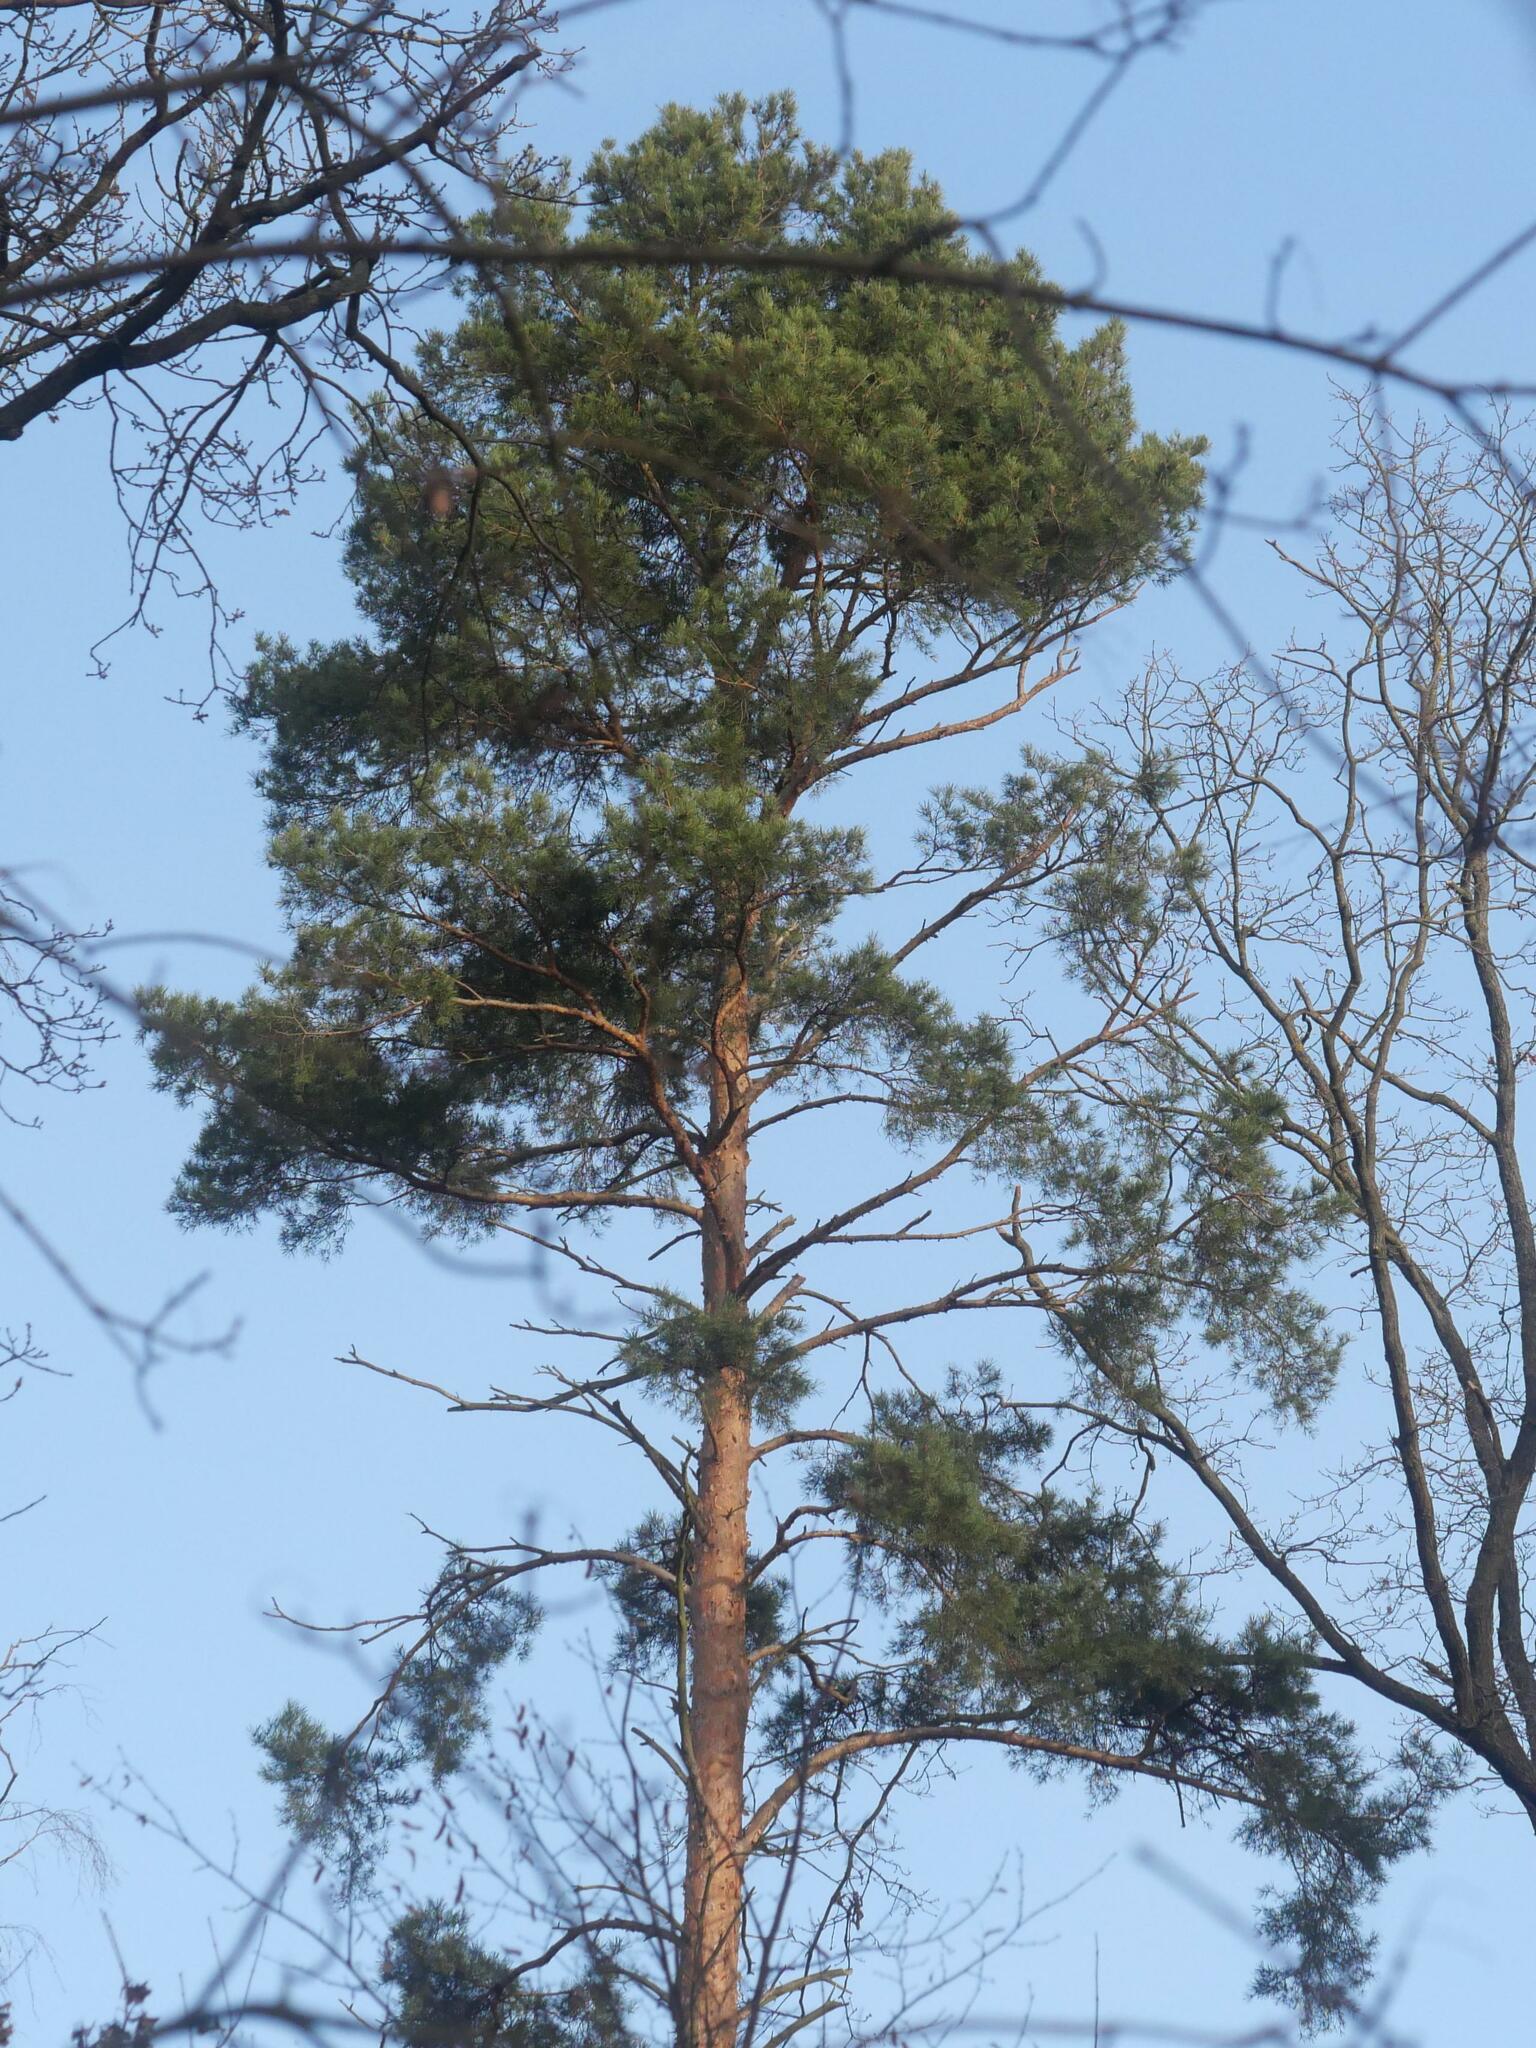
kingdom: Plantae
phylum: Tracheophyta
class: Pinopsida
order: Pinales
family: Pinaceae
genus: Pinus
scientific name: Pinus sylvestris
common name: Scots pine
